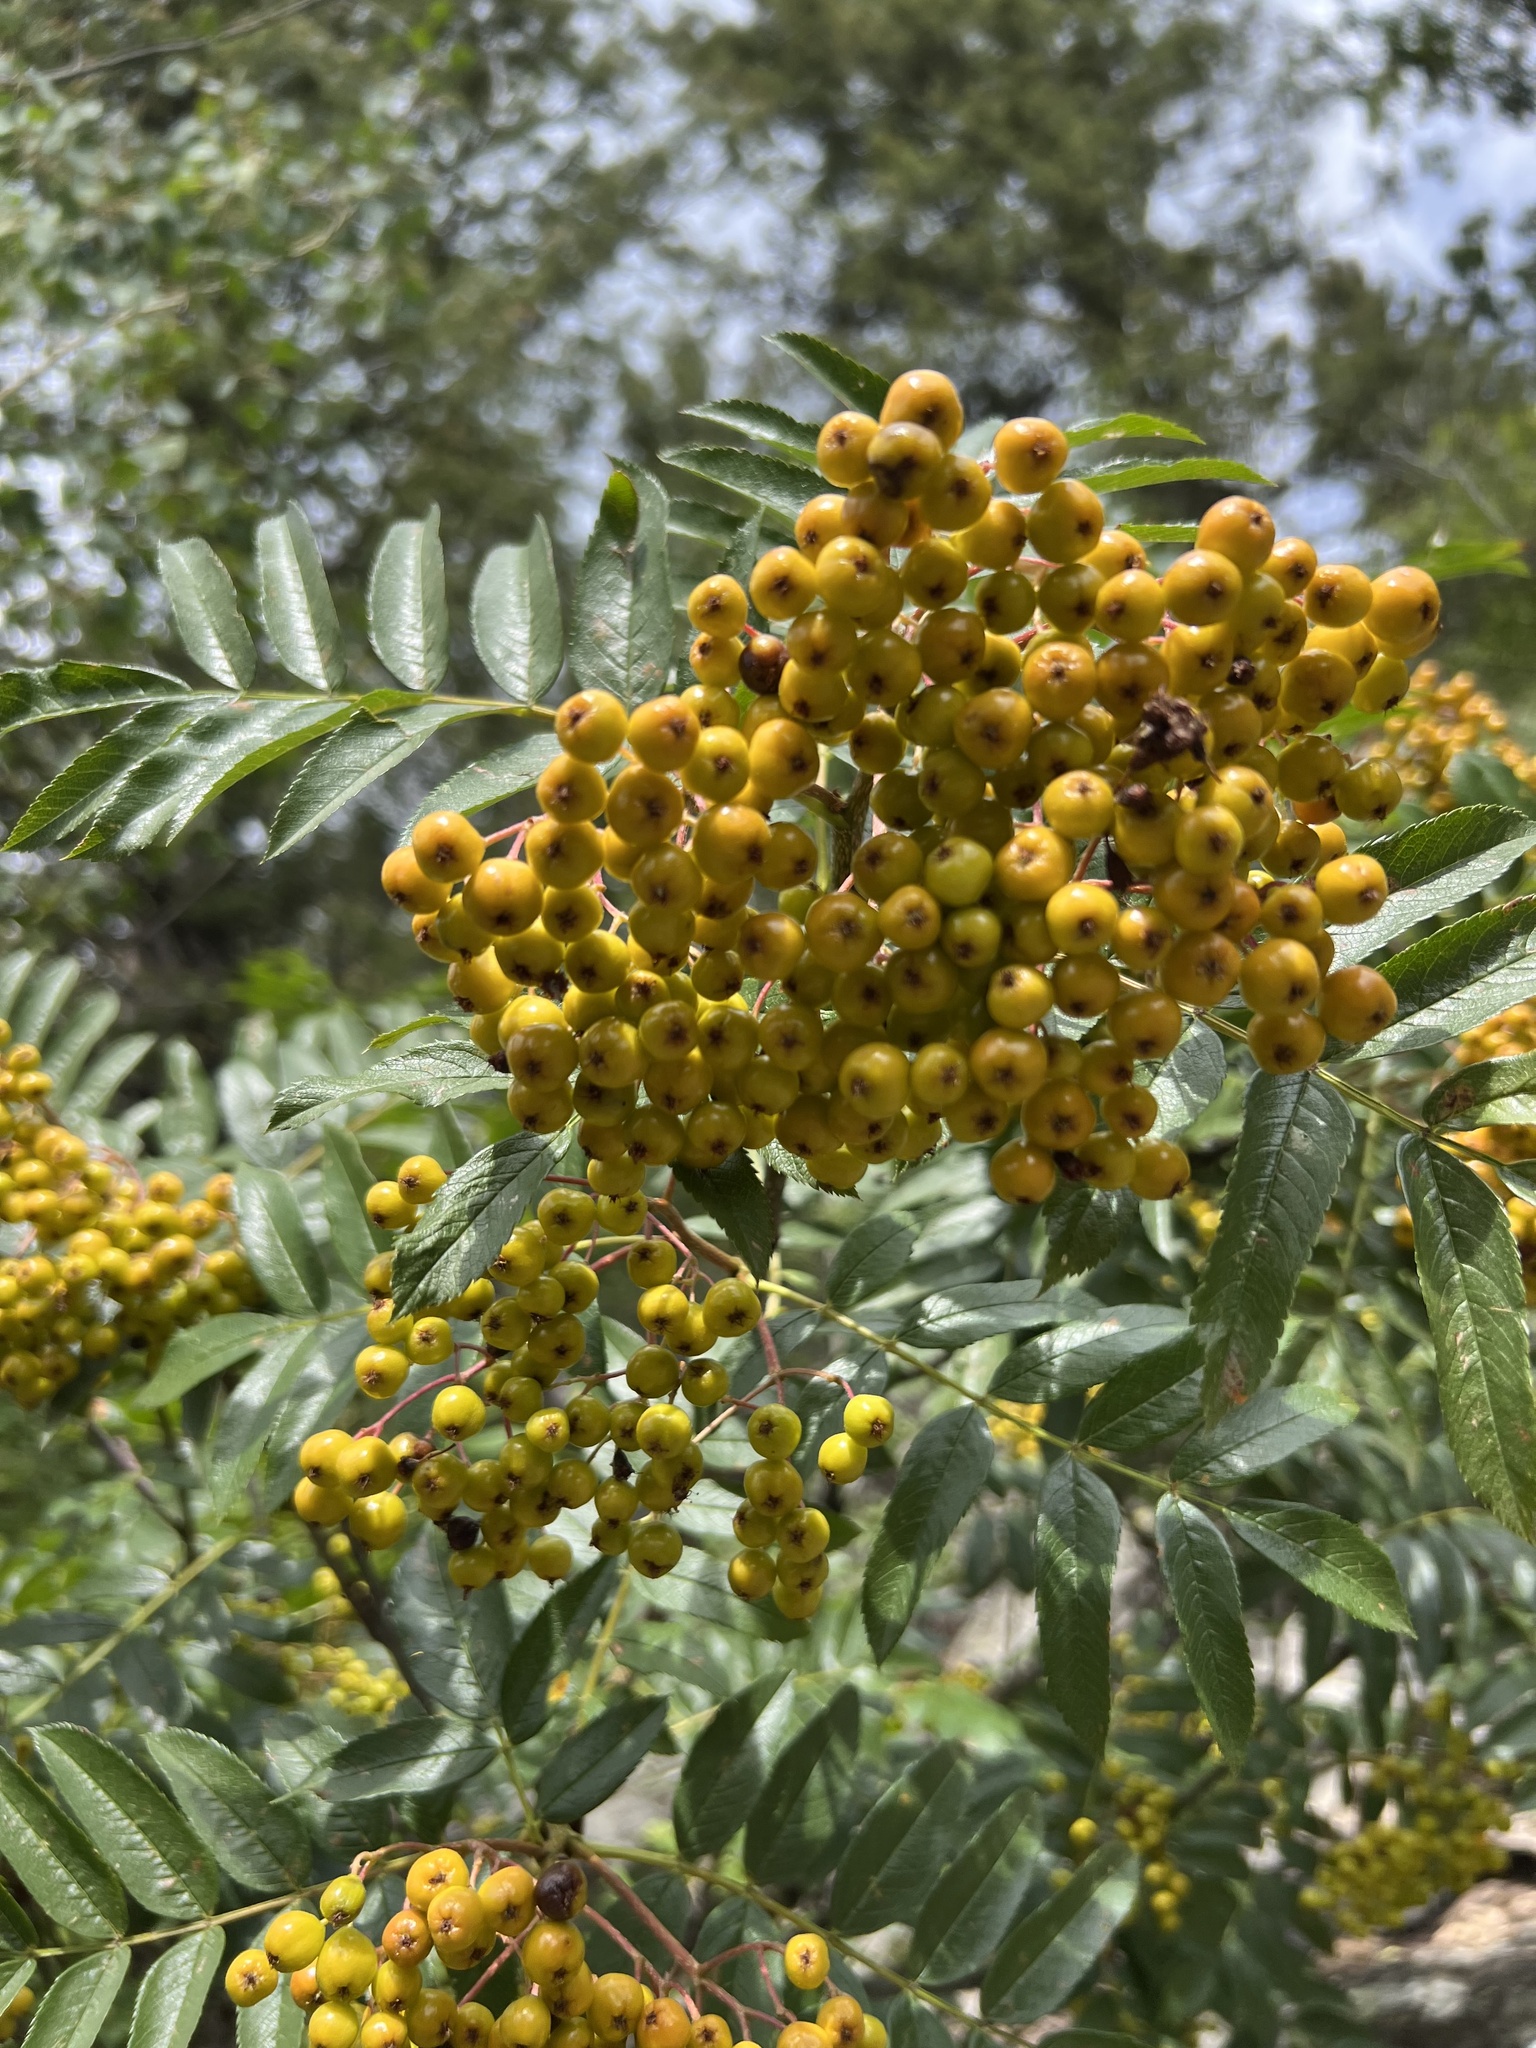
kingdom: Plantae
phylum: Tracheophyta
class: Magnoliopsida
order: Rosales
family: Rosaceae
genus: Sorbus
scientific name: Sorbus scopulina
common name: Greene's mountain-ash
